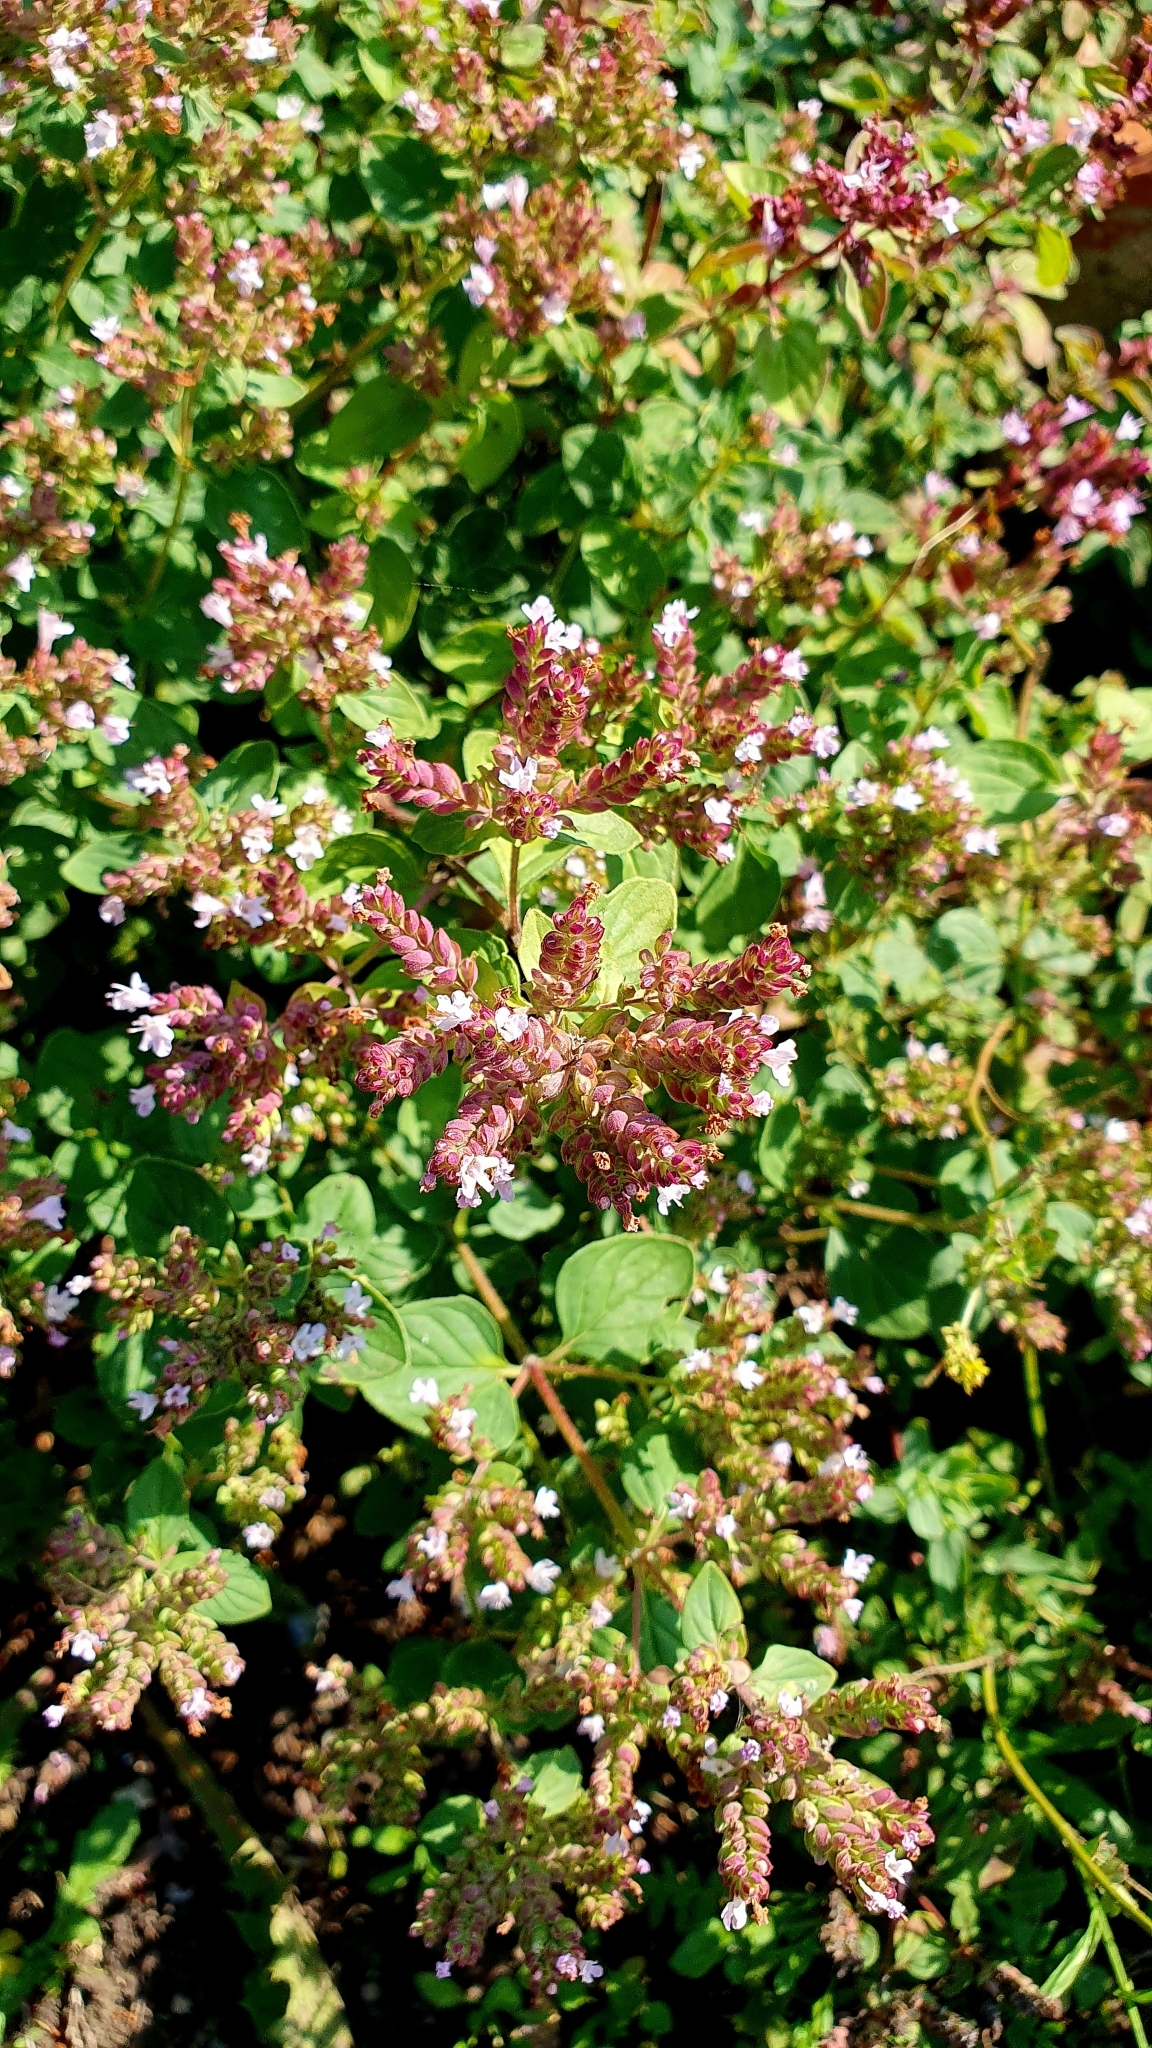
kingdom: Plantae
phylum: Tracheophyta
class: Magnoliopsida
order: Lamiales
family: Lamiaceae
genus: Origanum
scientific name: Origanum vulgare
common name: Wild marjoram
